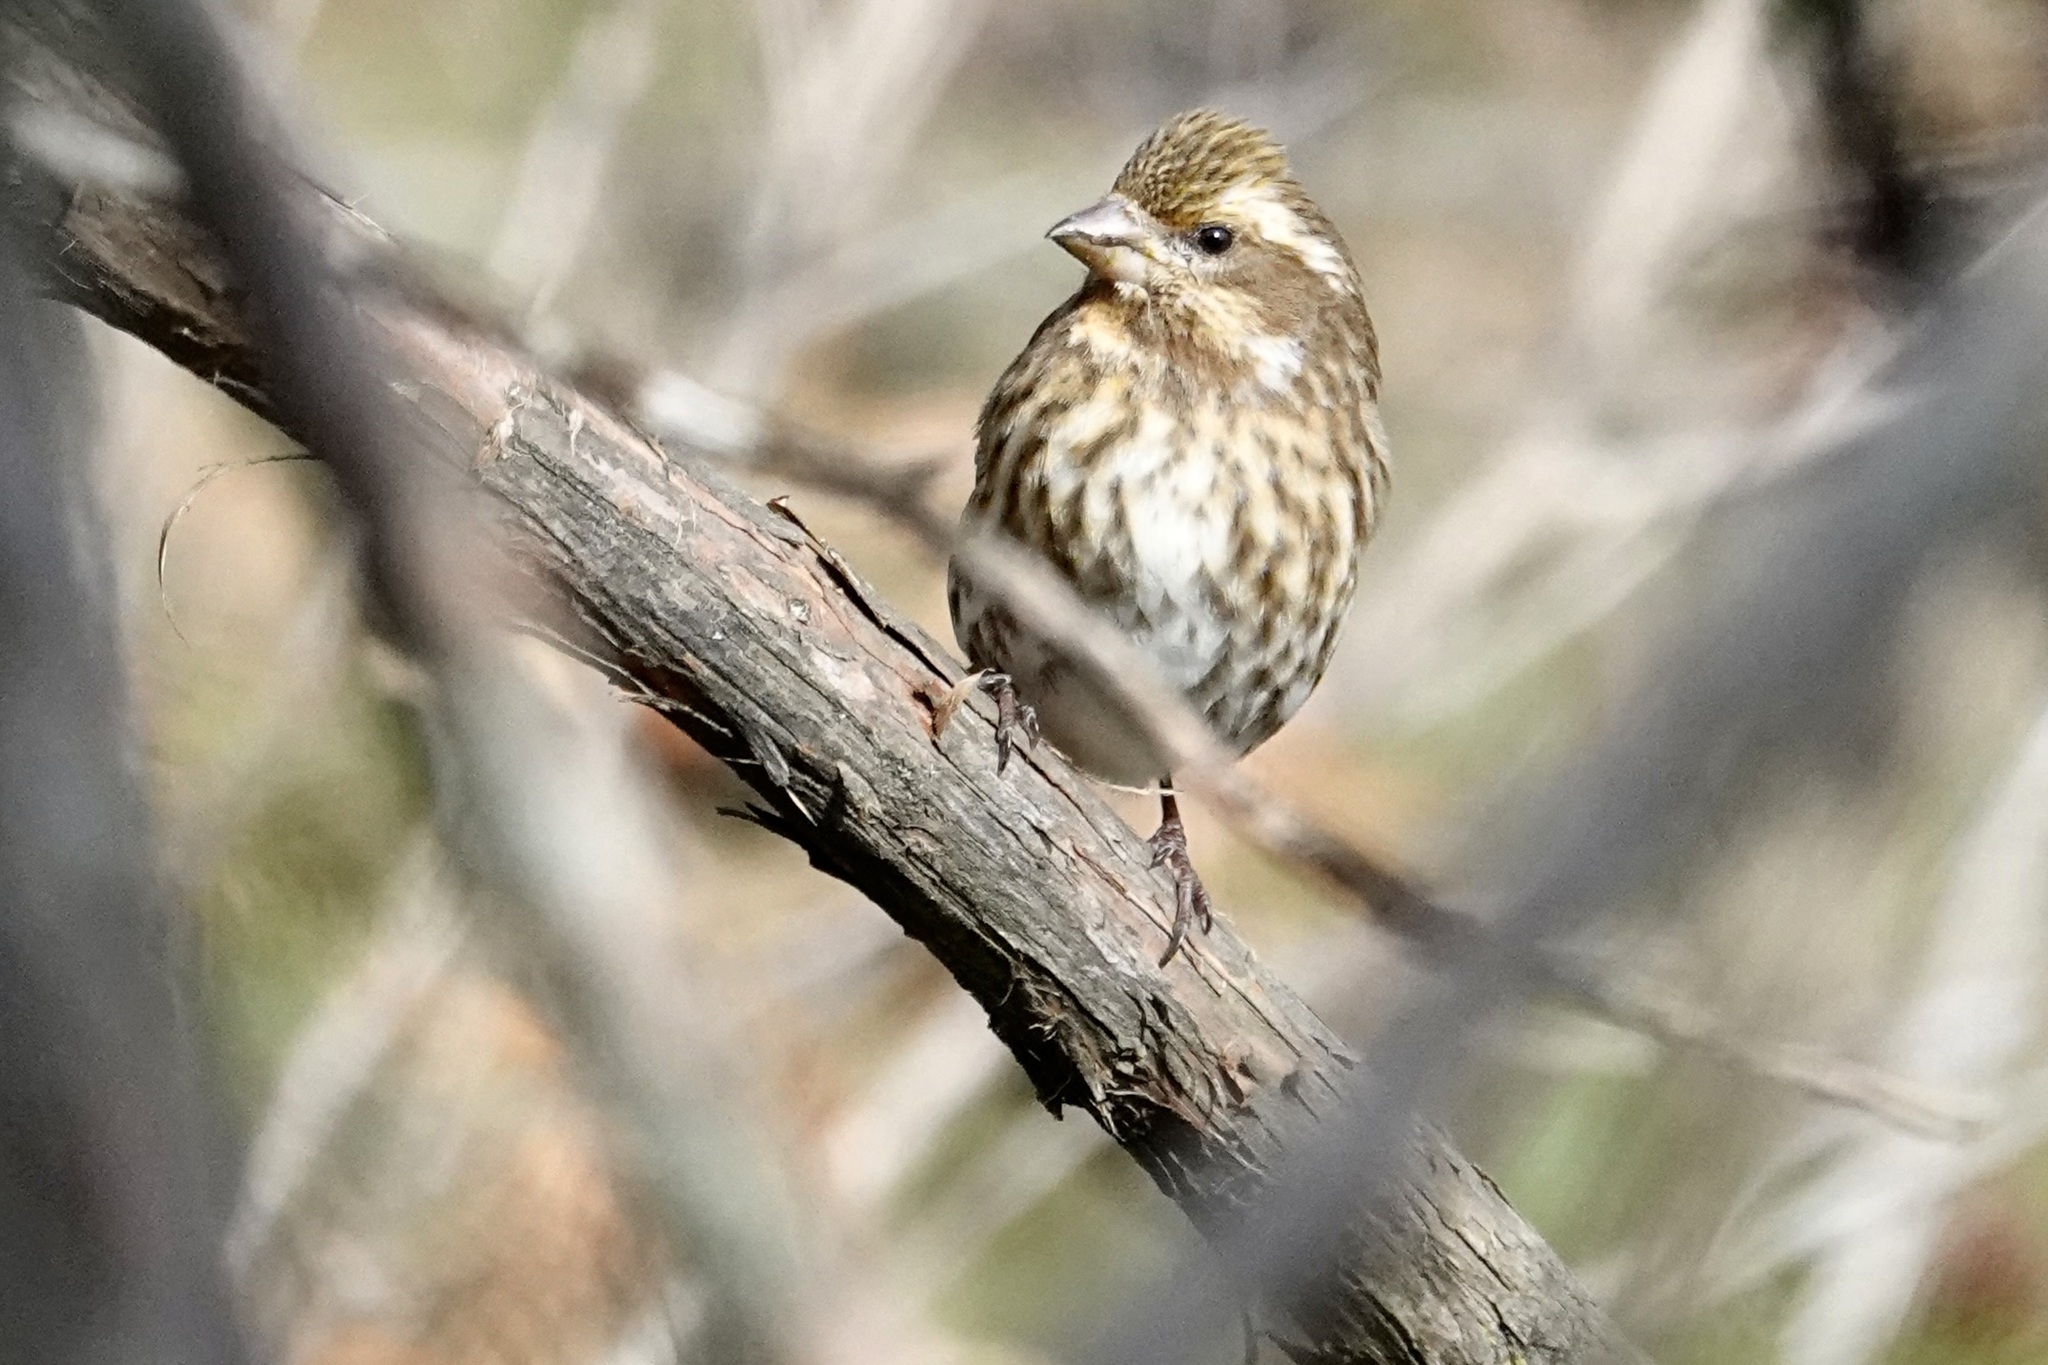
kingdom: Animalia
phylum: Chordata
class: Aves
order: Passeriformes
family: Fringillidae
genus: Haemorhous
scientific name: Haemorhous purpureus
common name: Purple finch
